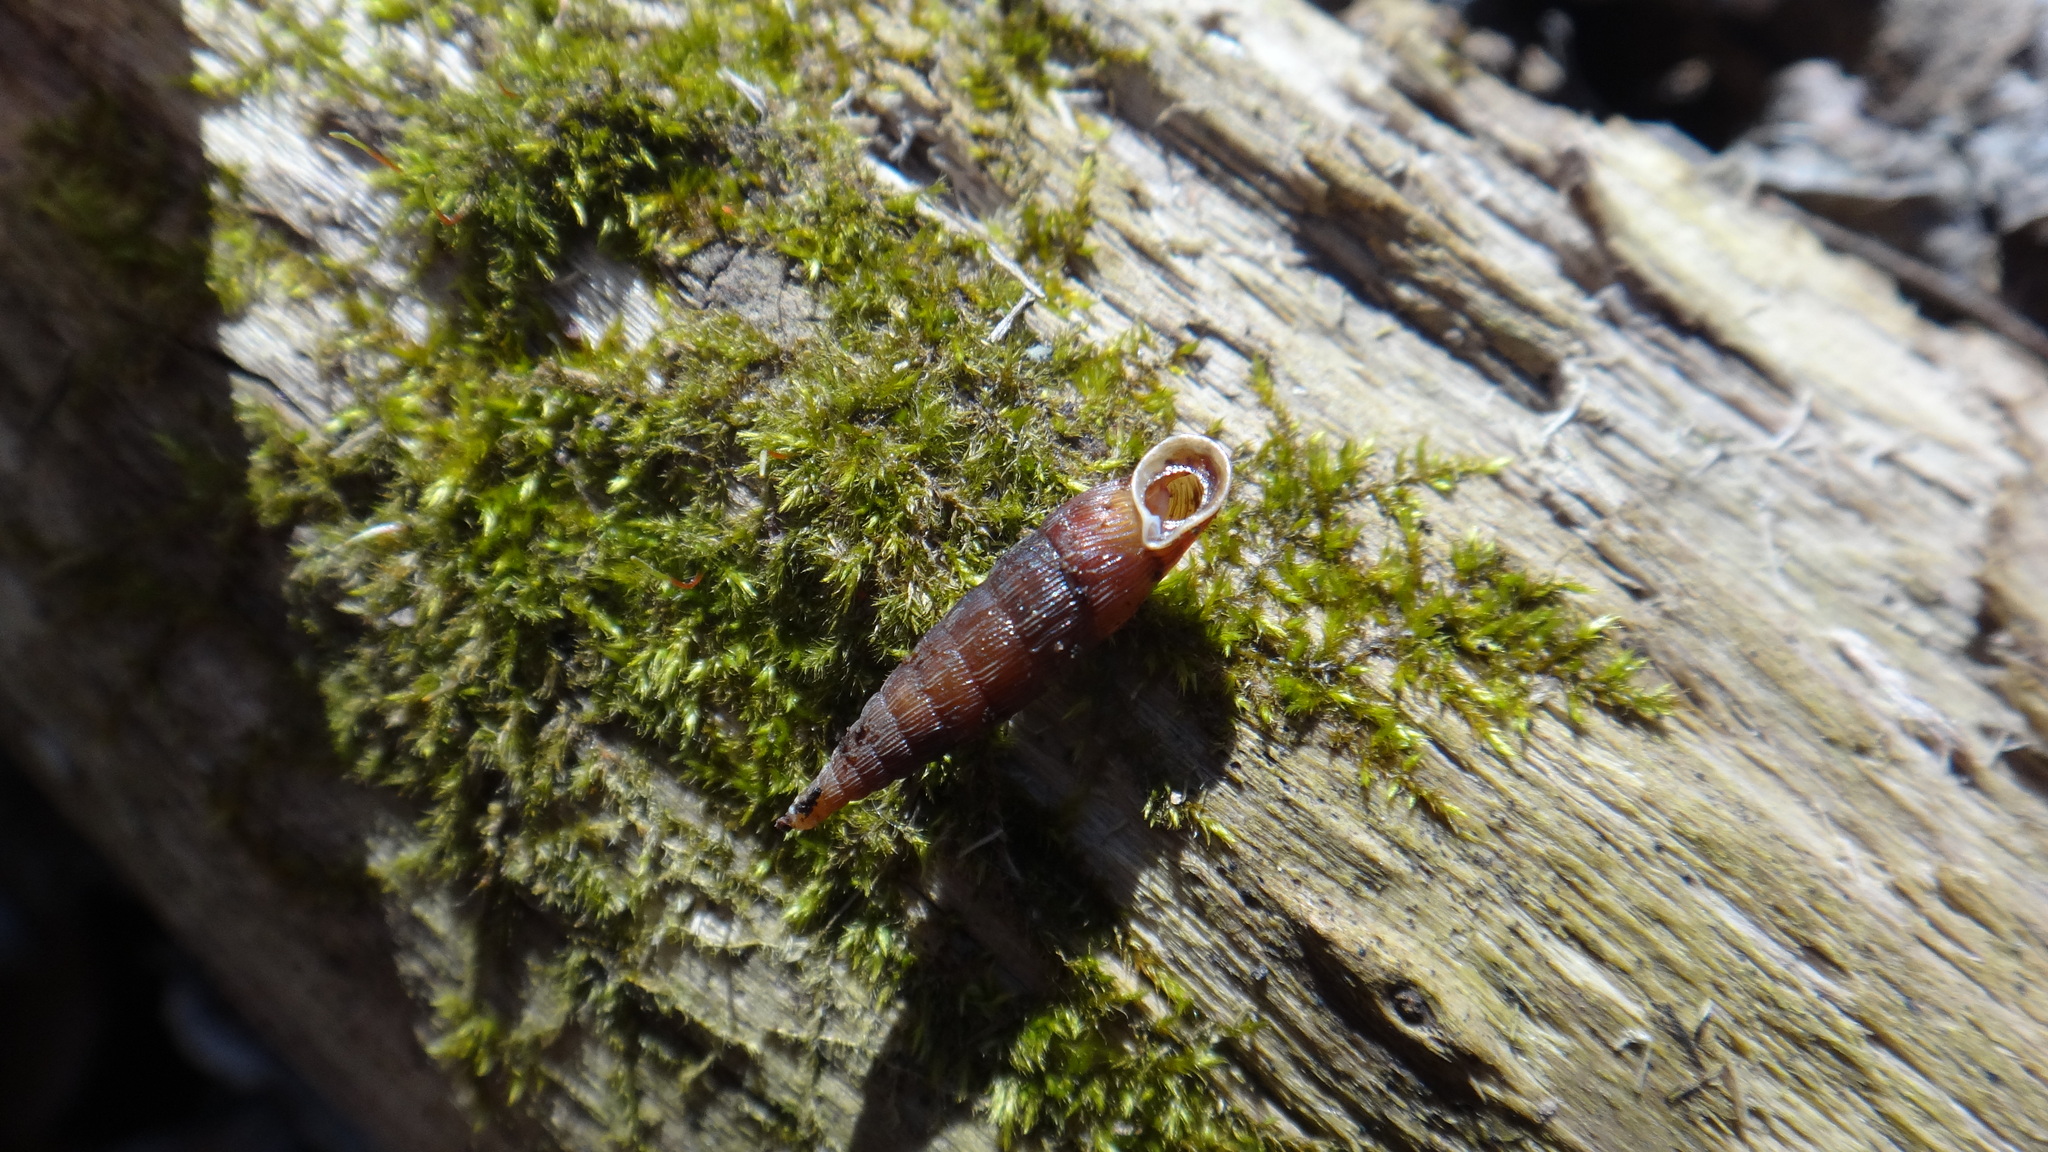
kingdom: Animalia
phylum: Mollusca
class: Gastropoda
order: Stylommatophora
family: Clausiliidae
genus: Strigillaria
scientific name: Strigillaria cana
